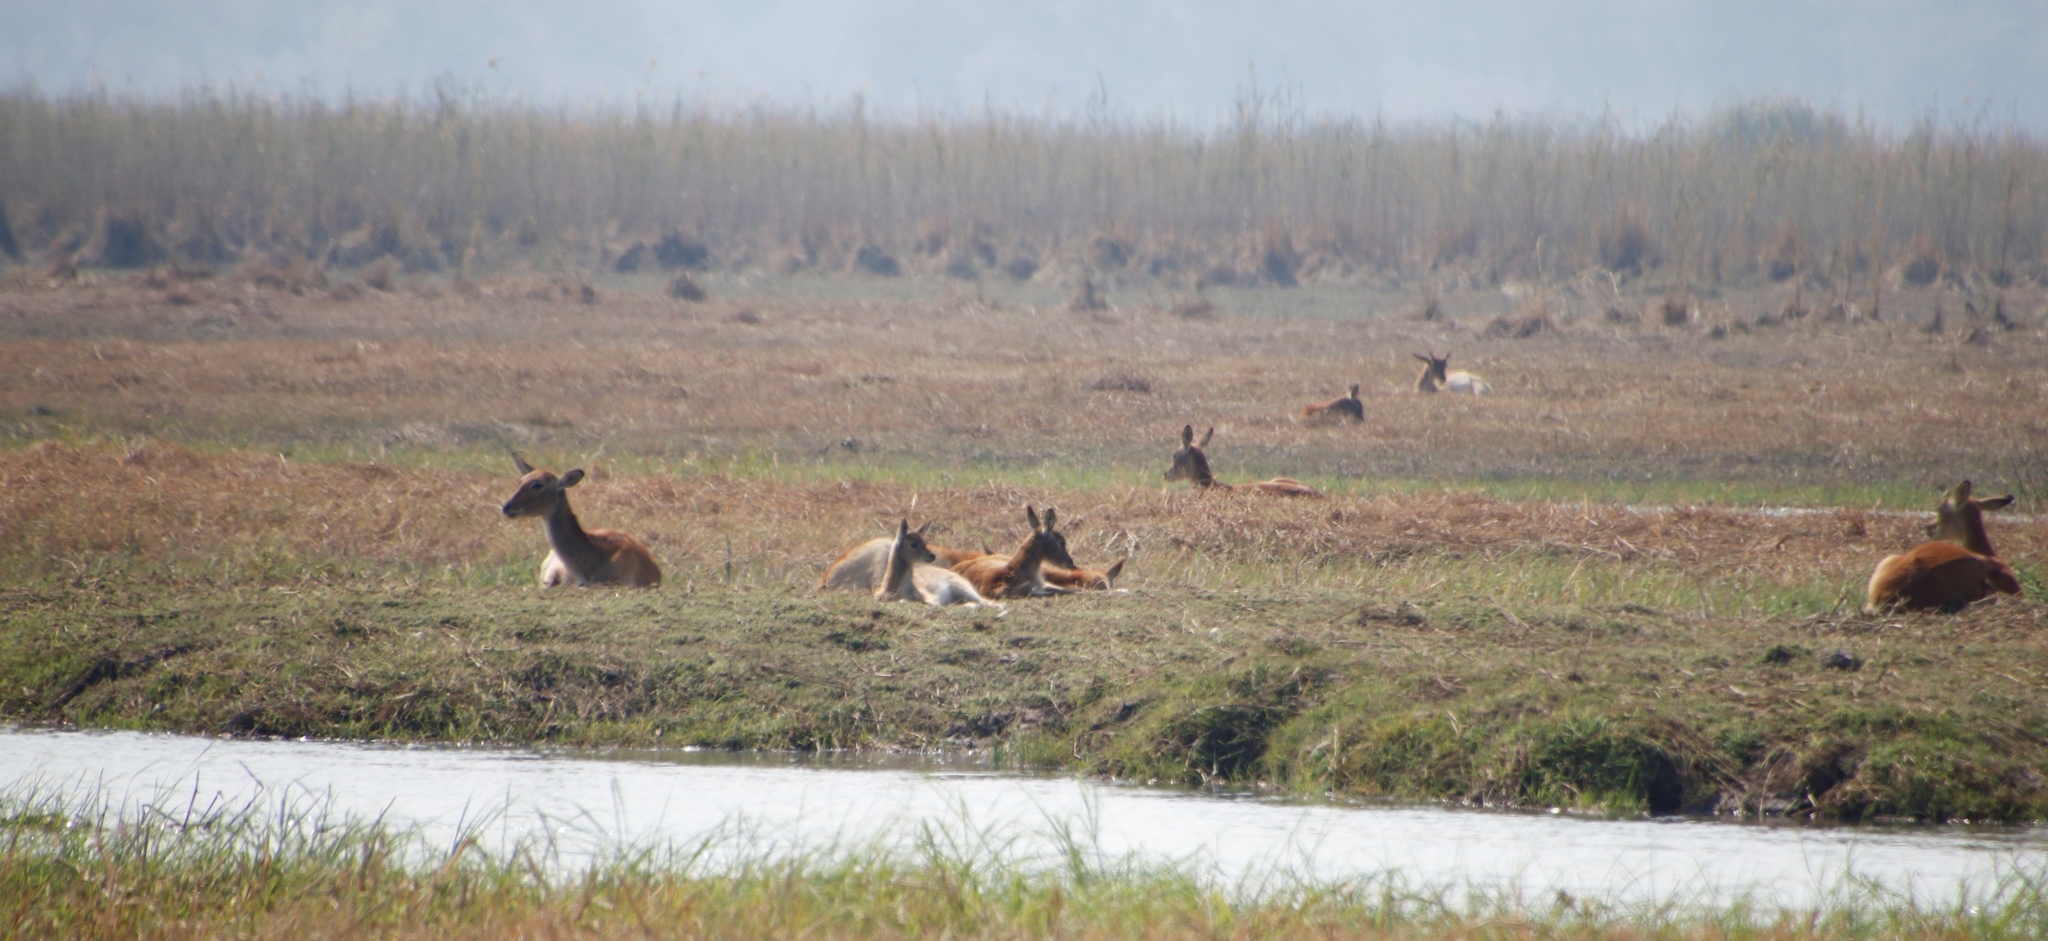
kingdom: Plantae
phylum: Tracheophyta
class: Liliopsida
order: Poales
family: Poaceae
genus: Phragmites
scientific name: Phragmites australis
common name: Common reed
